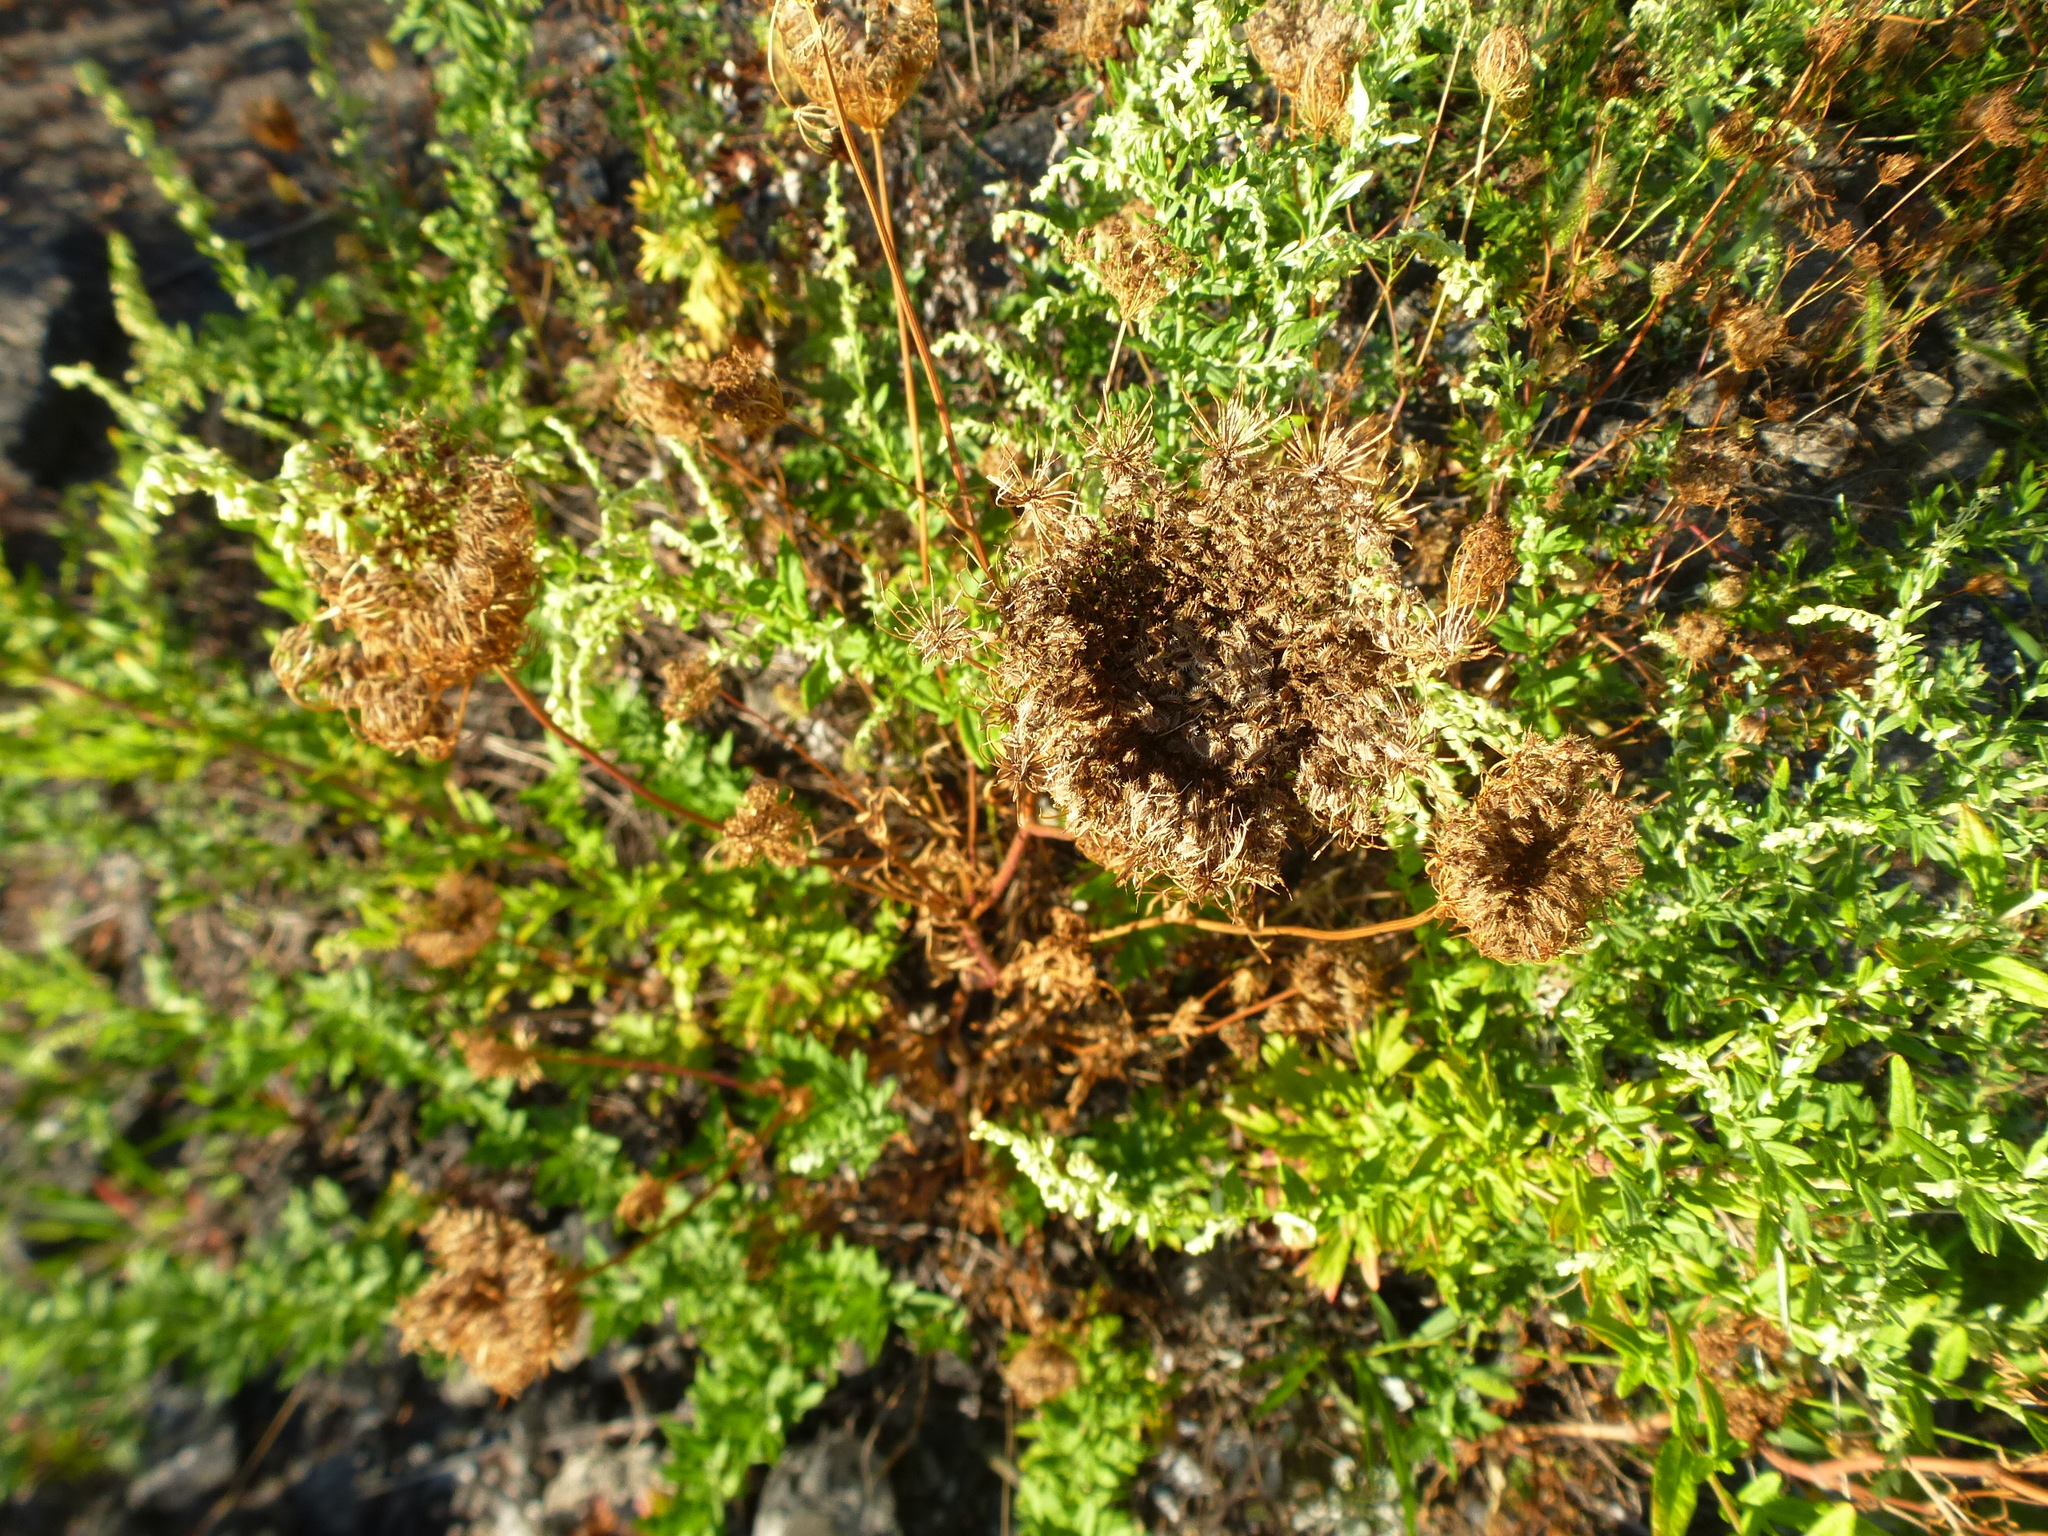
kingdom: Plantae
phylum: Tracheophyta
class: Magnoliopsida
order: Apiales
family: Apiaceae
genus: Daucus
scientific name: Daucus carota
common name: Wild carrot
